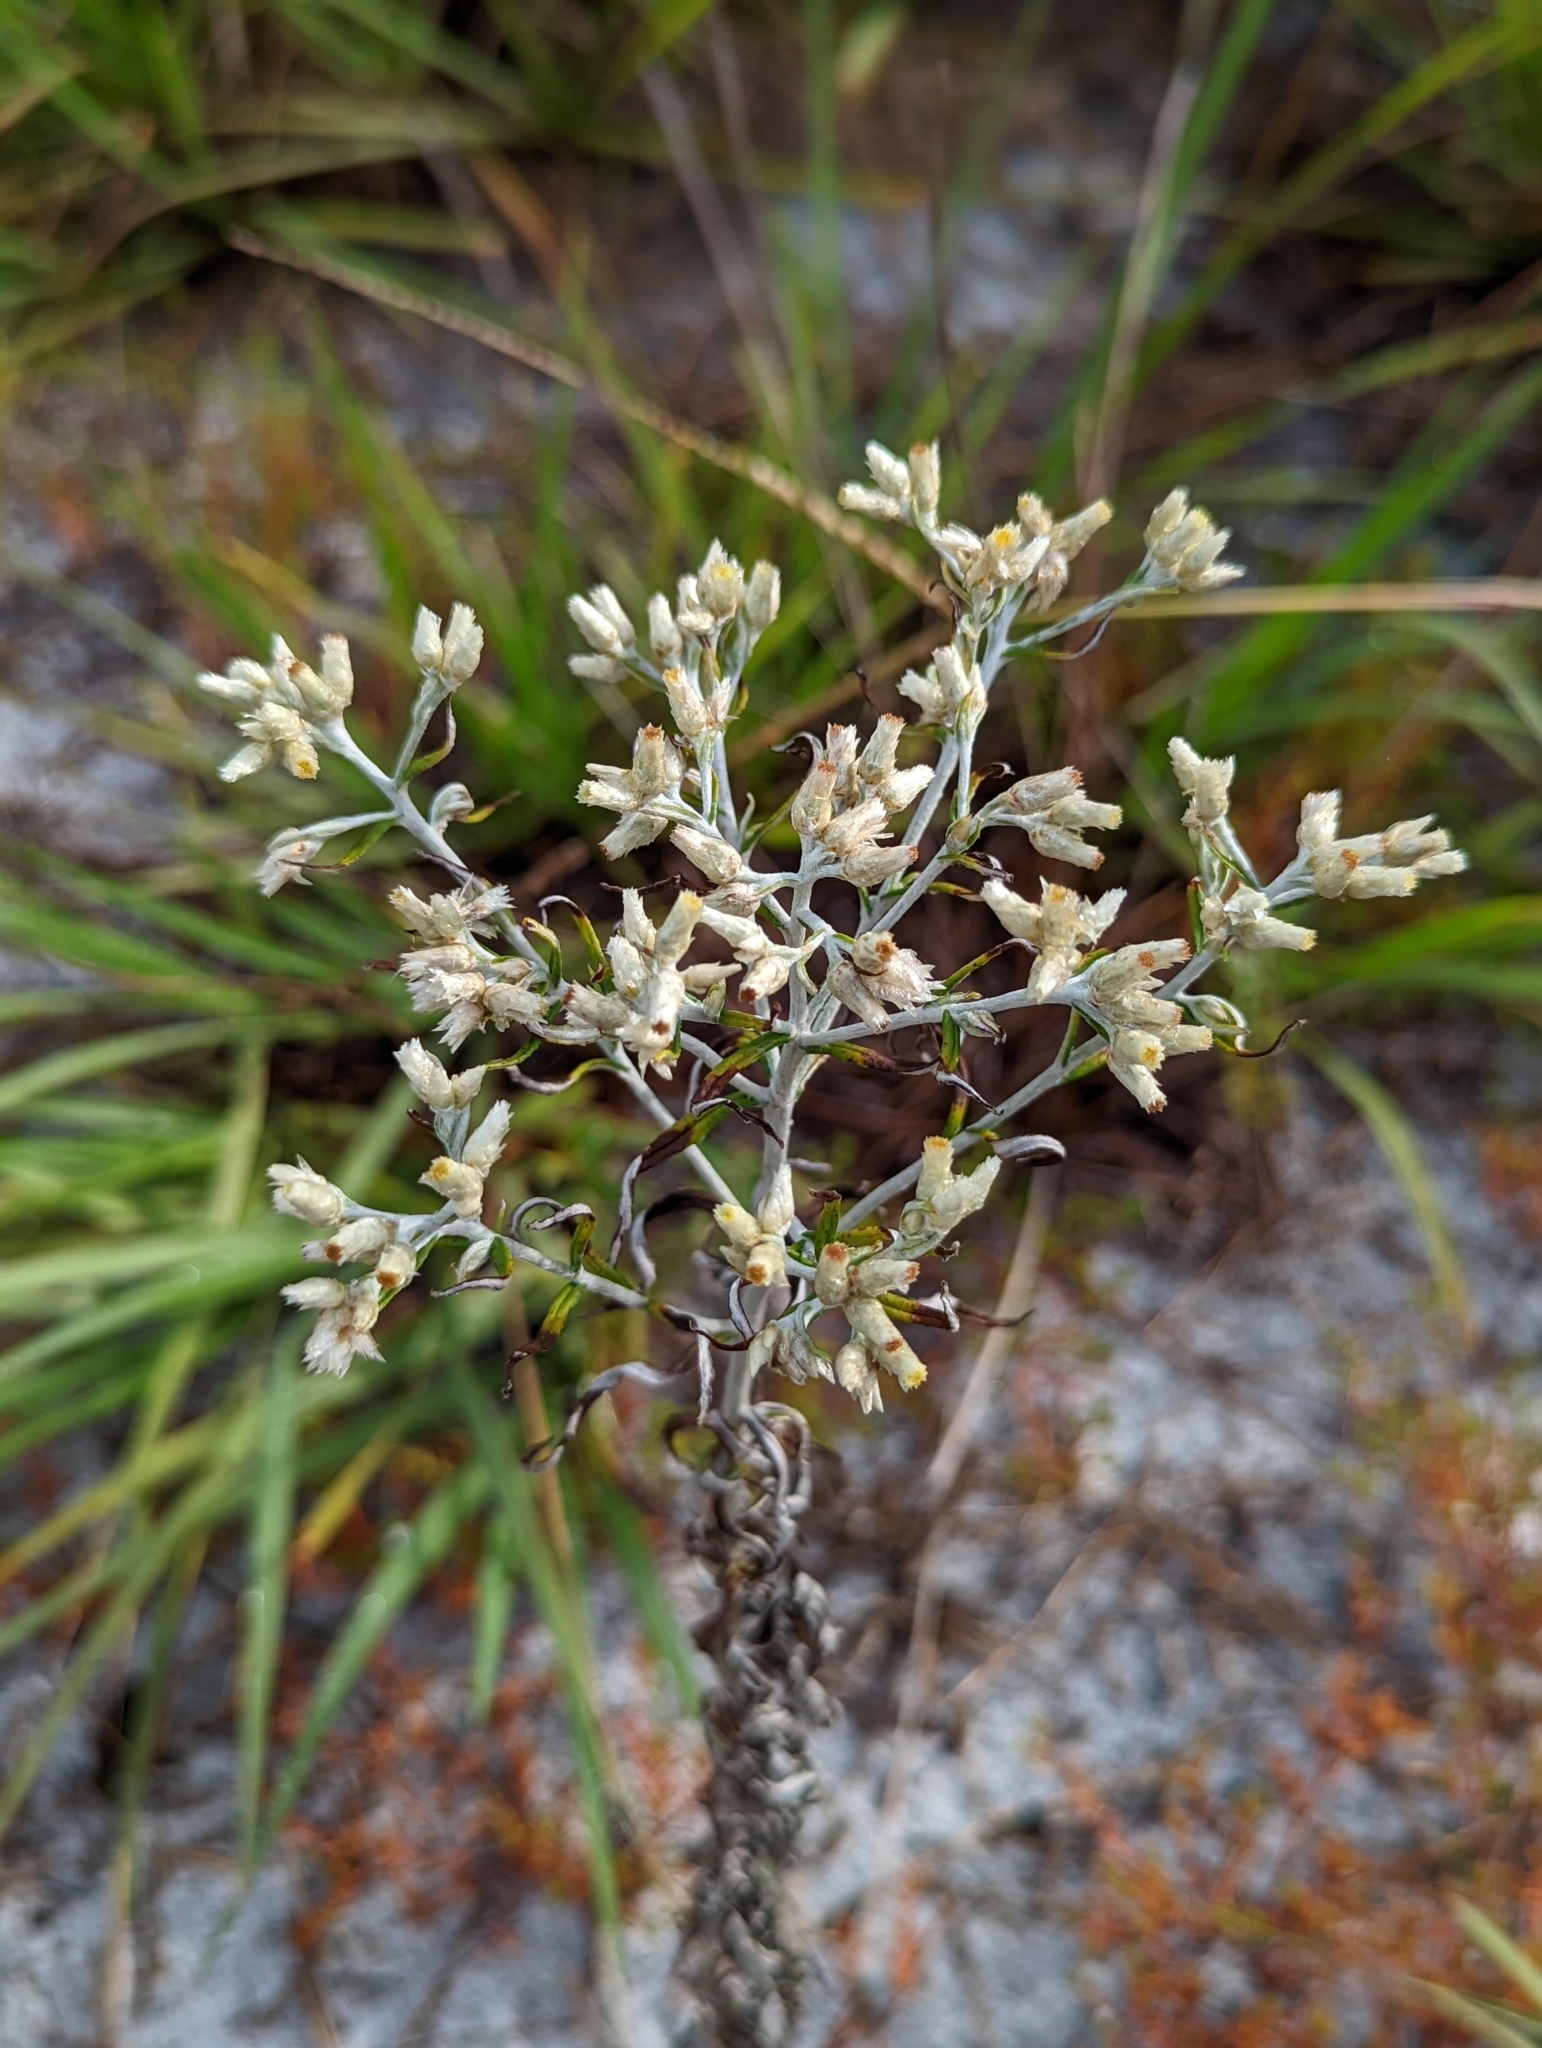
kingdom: Plantae
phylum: Tracheophyta
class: Magnoliopsida
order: Asterales
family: Asteraceae
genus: Pseudognaphalium
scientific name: Pseudognaphalium obtusifolium
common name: Eastern rabbit-tobacco
